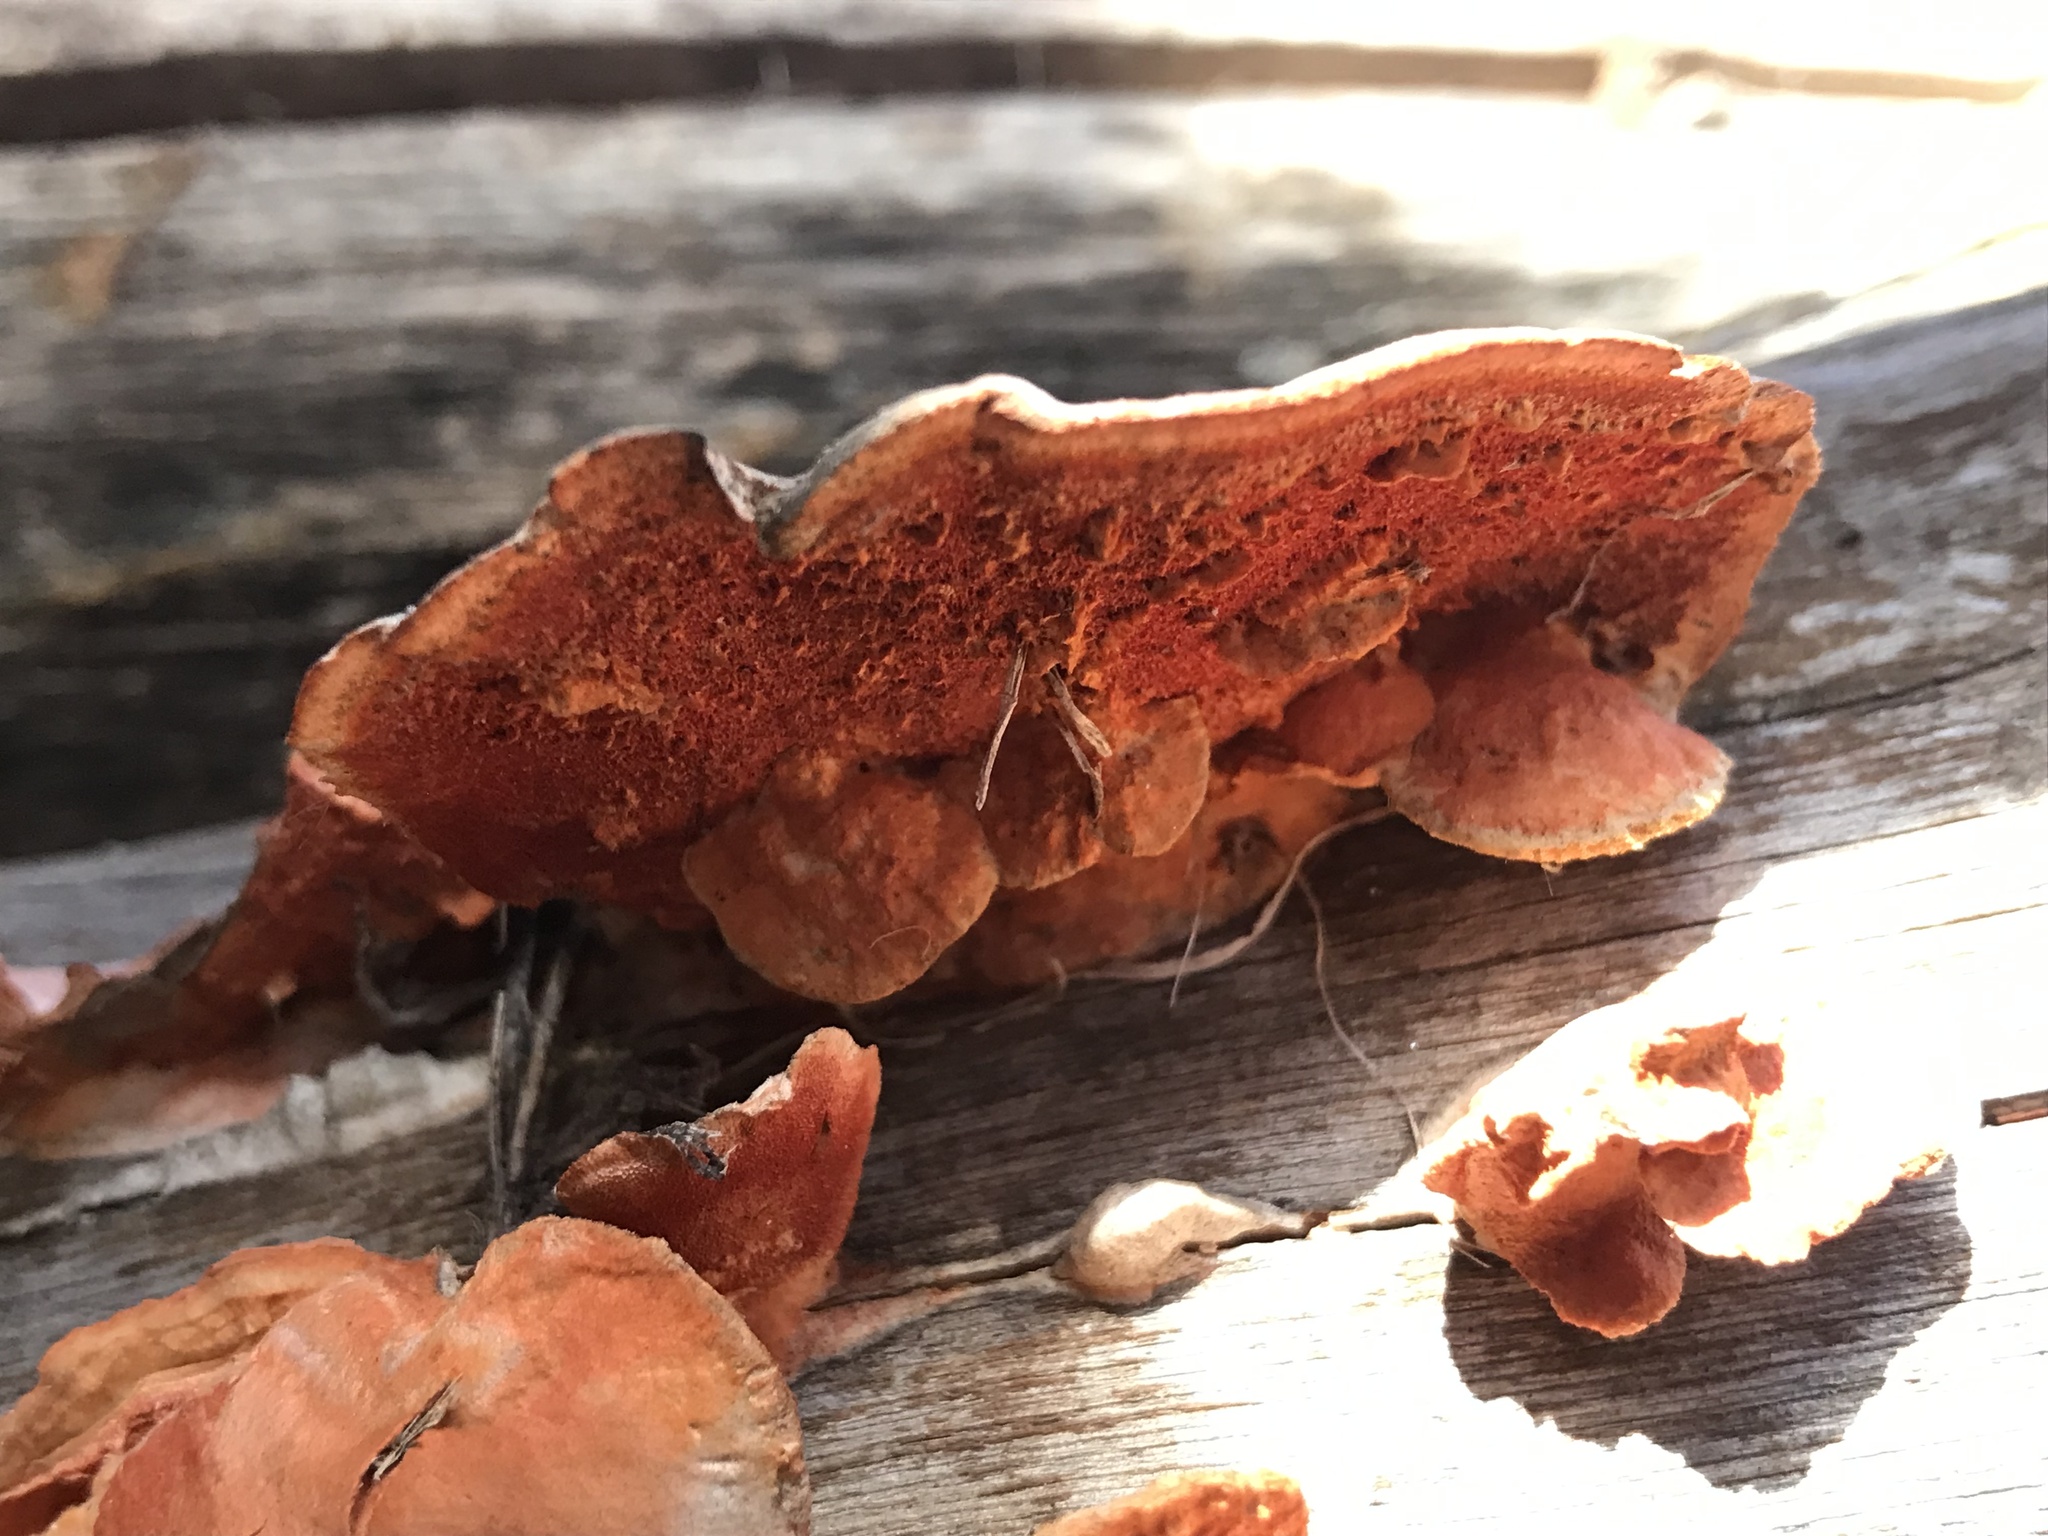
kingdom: Fungi
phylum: Basidiomycota
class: Agaricomycetes
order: Polyporales
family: Polyporaceae
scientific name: Polyporaceae
